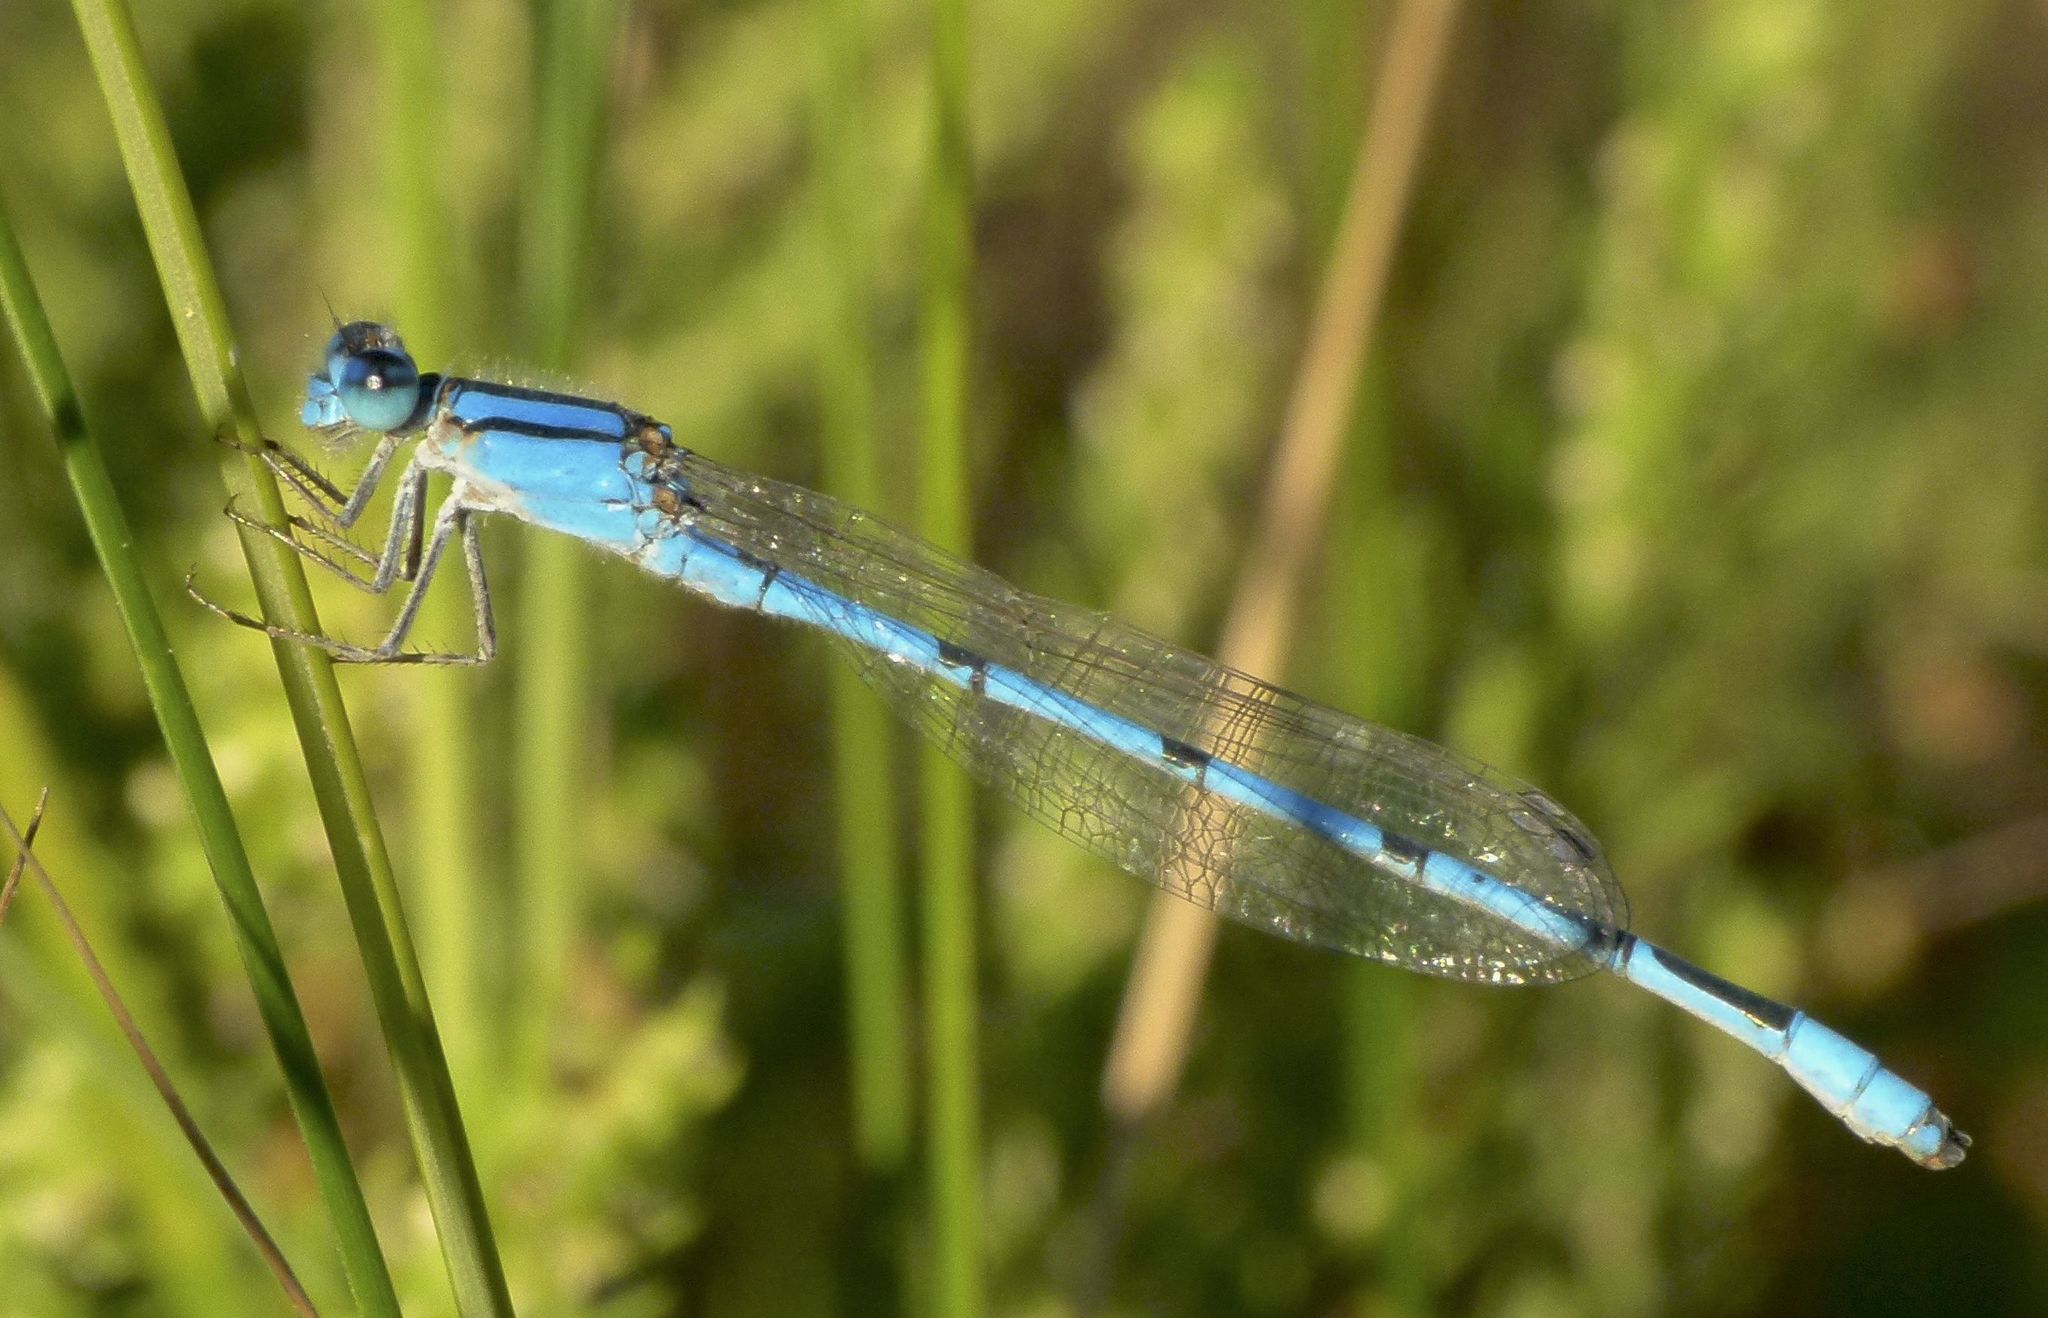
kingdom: Animalia
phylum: Arthropoda
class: Insecta
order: Odonata
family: Coenagrionidae
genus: Enallagma
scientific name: Enallagma civile
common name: Damselfly
